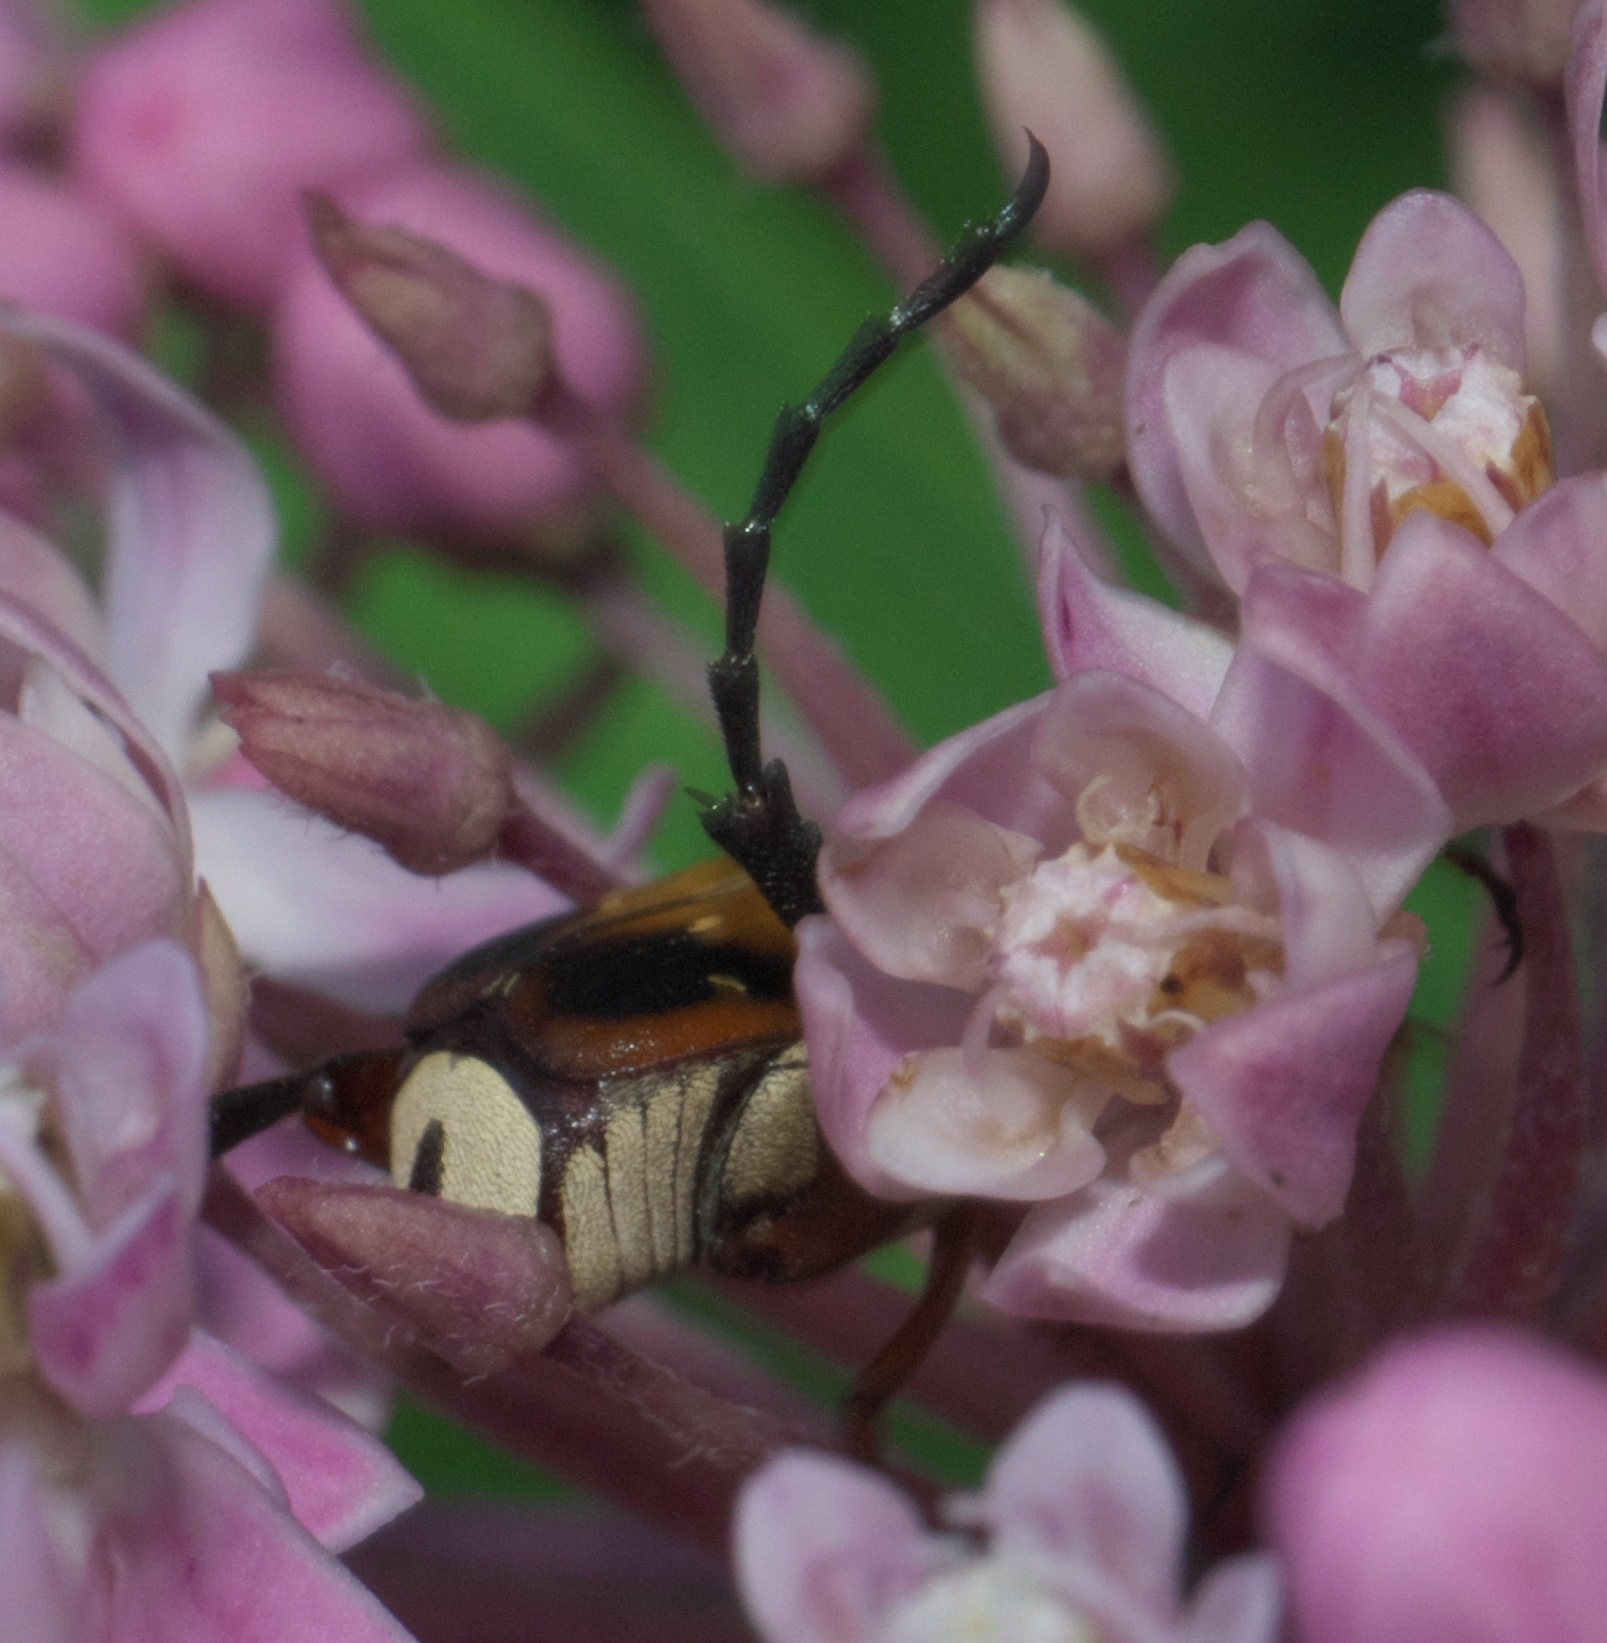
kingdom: Animalia
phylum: Arthropoda
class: Insecta
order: Coleoptera
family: Scarabaeidae
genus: Trigonopeltastes
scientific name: Trigonopeltastes delta
